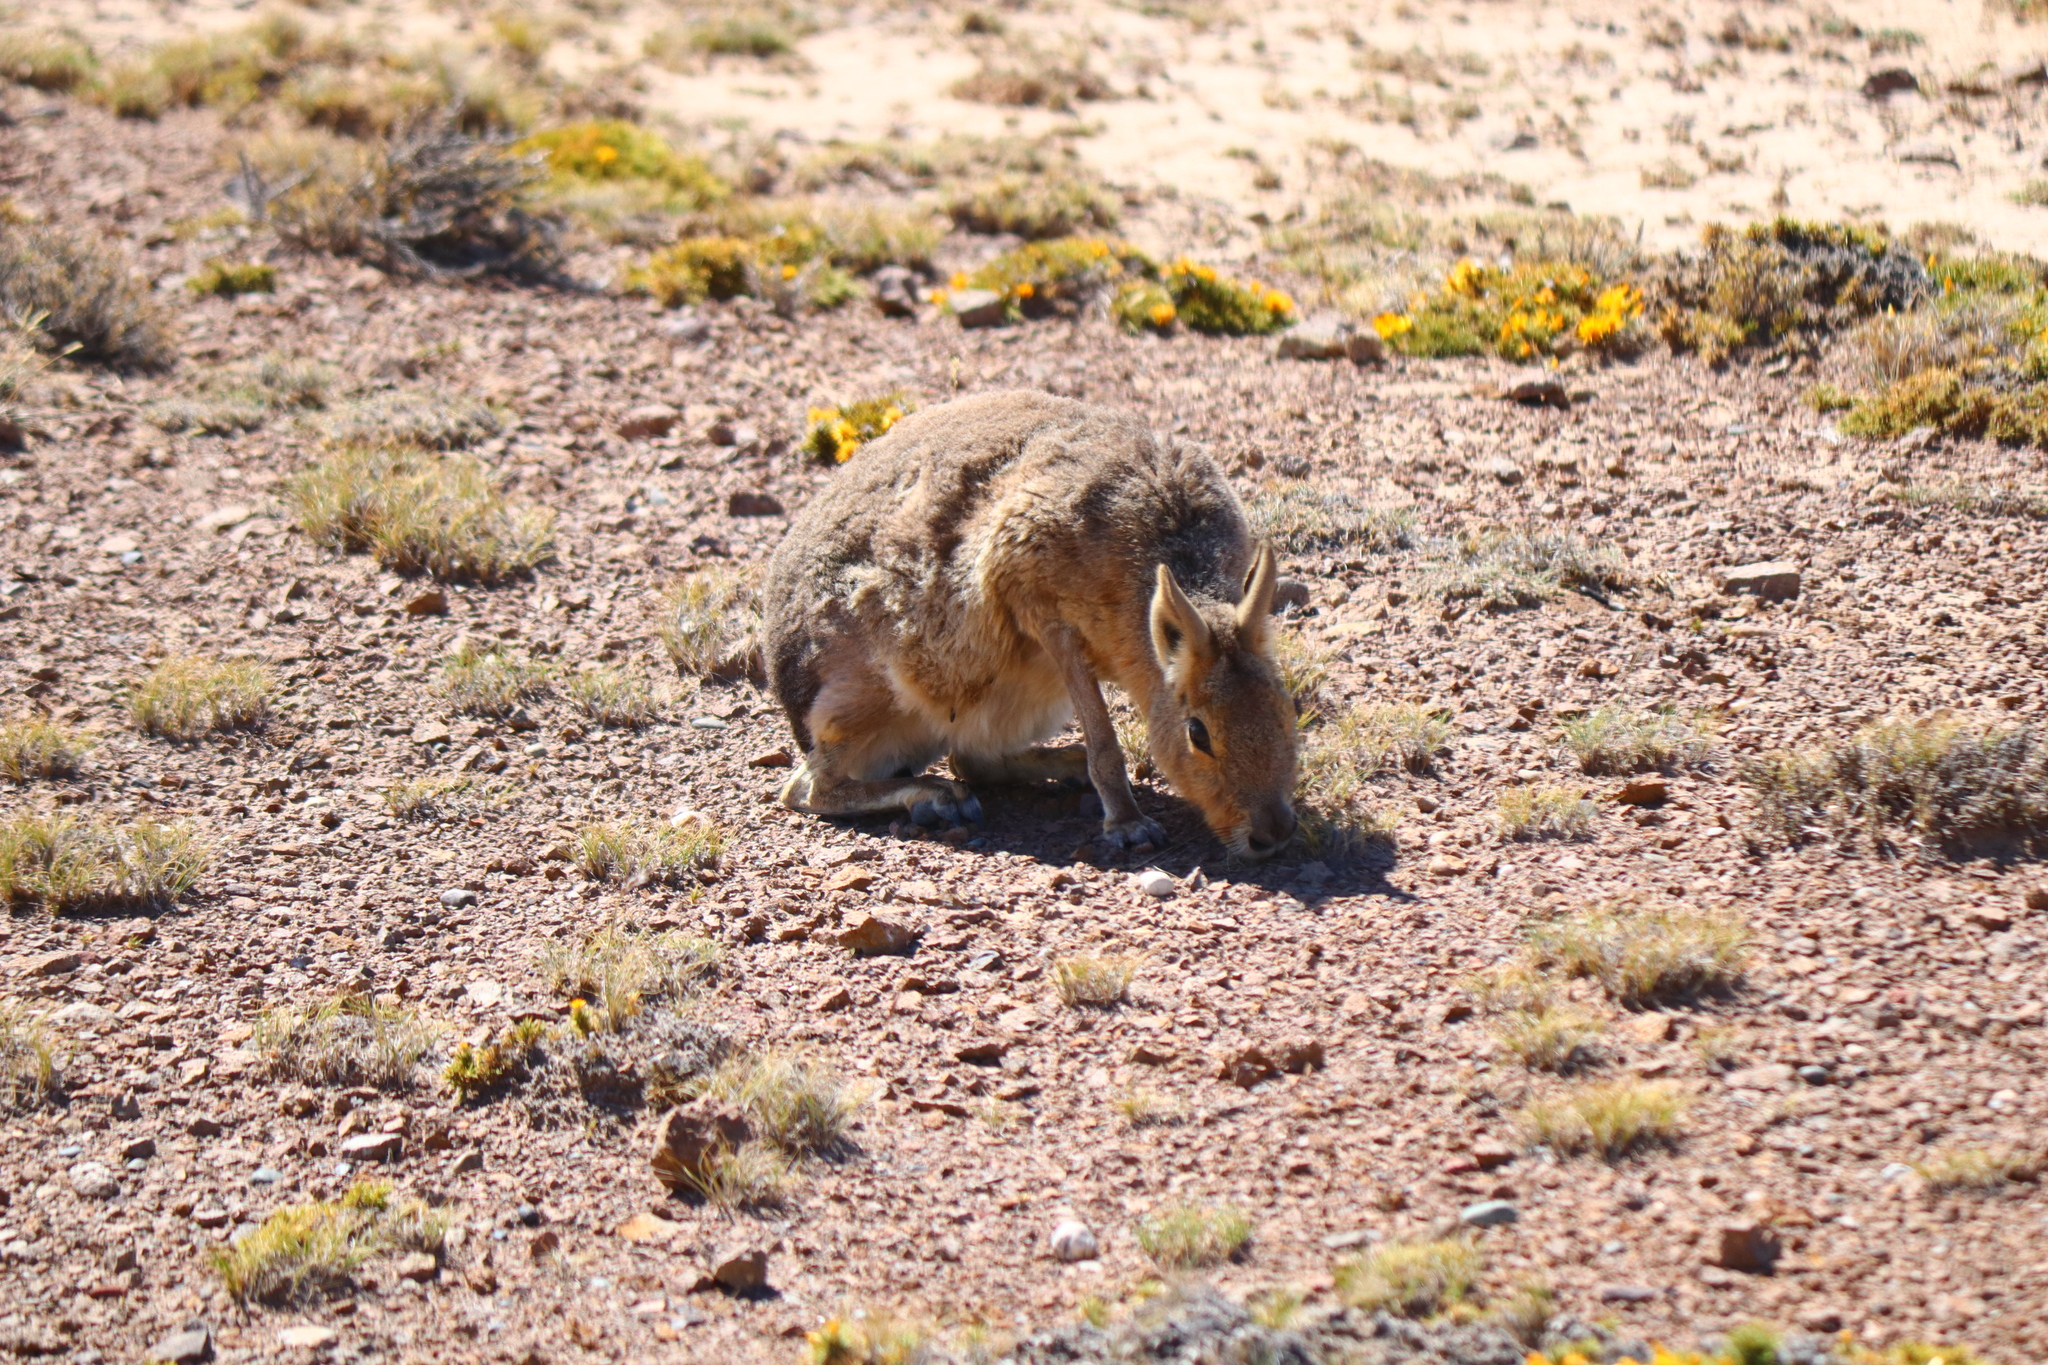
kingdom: Animalia
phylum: Chordata
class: Mammalia
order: Rodentia
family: Caviidae
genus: Dolichotis
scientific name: Dolichotis patagonum
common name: Patagonian mara
